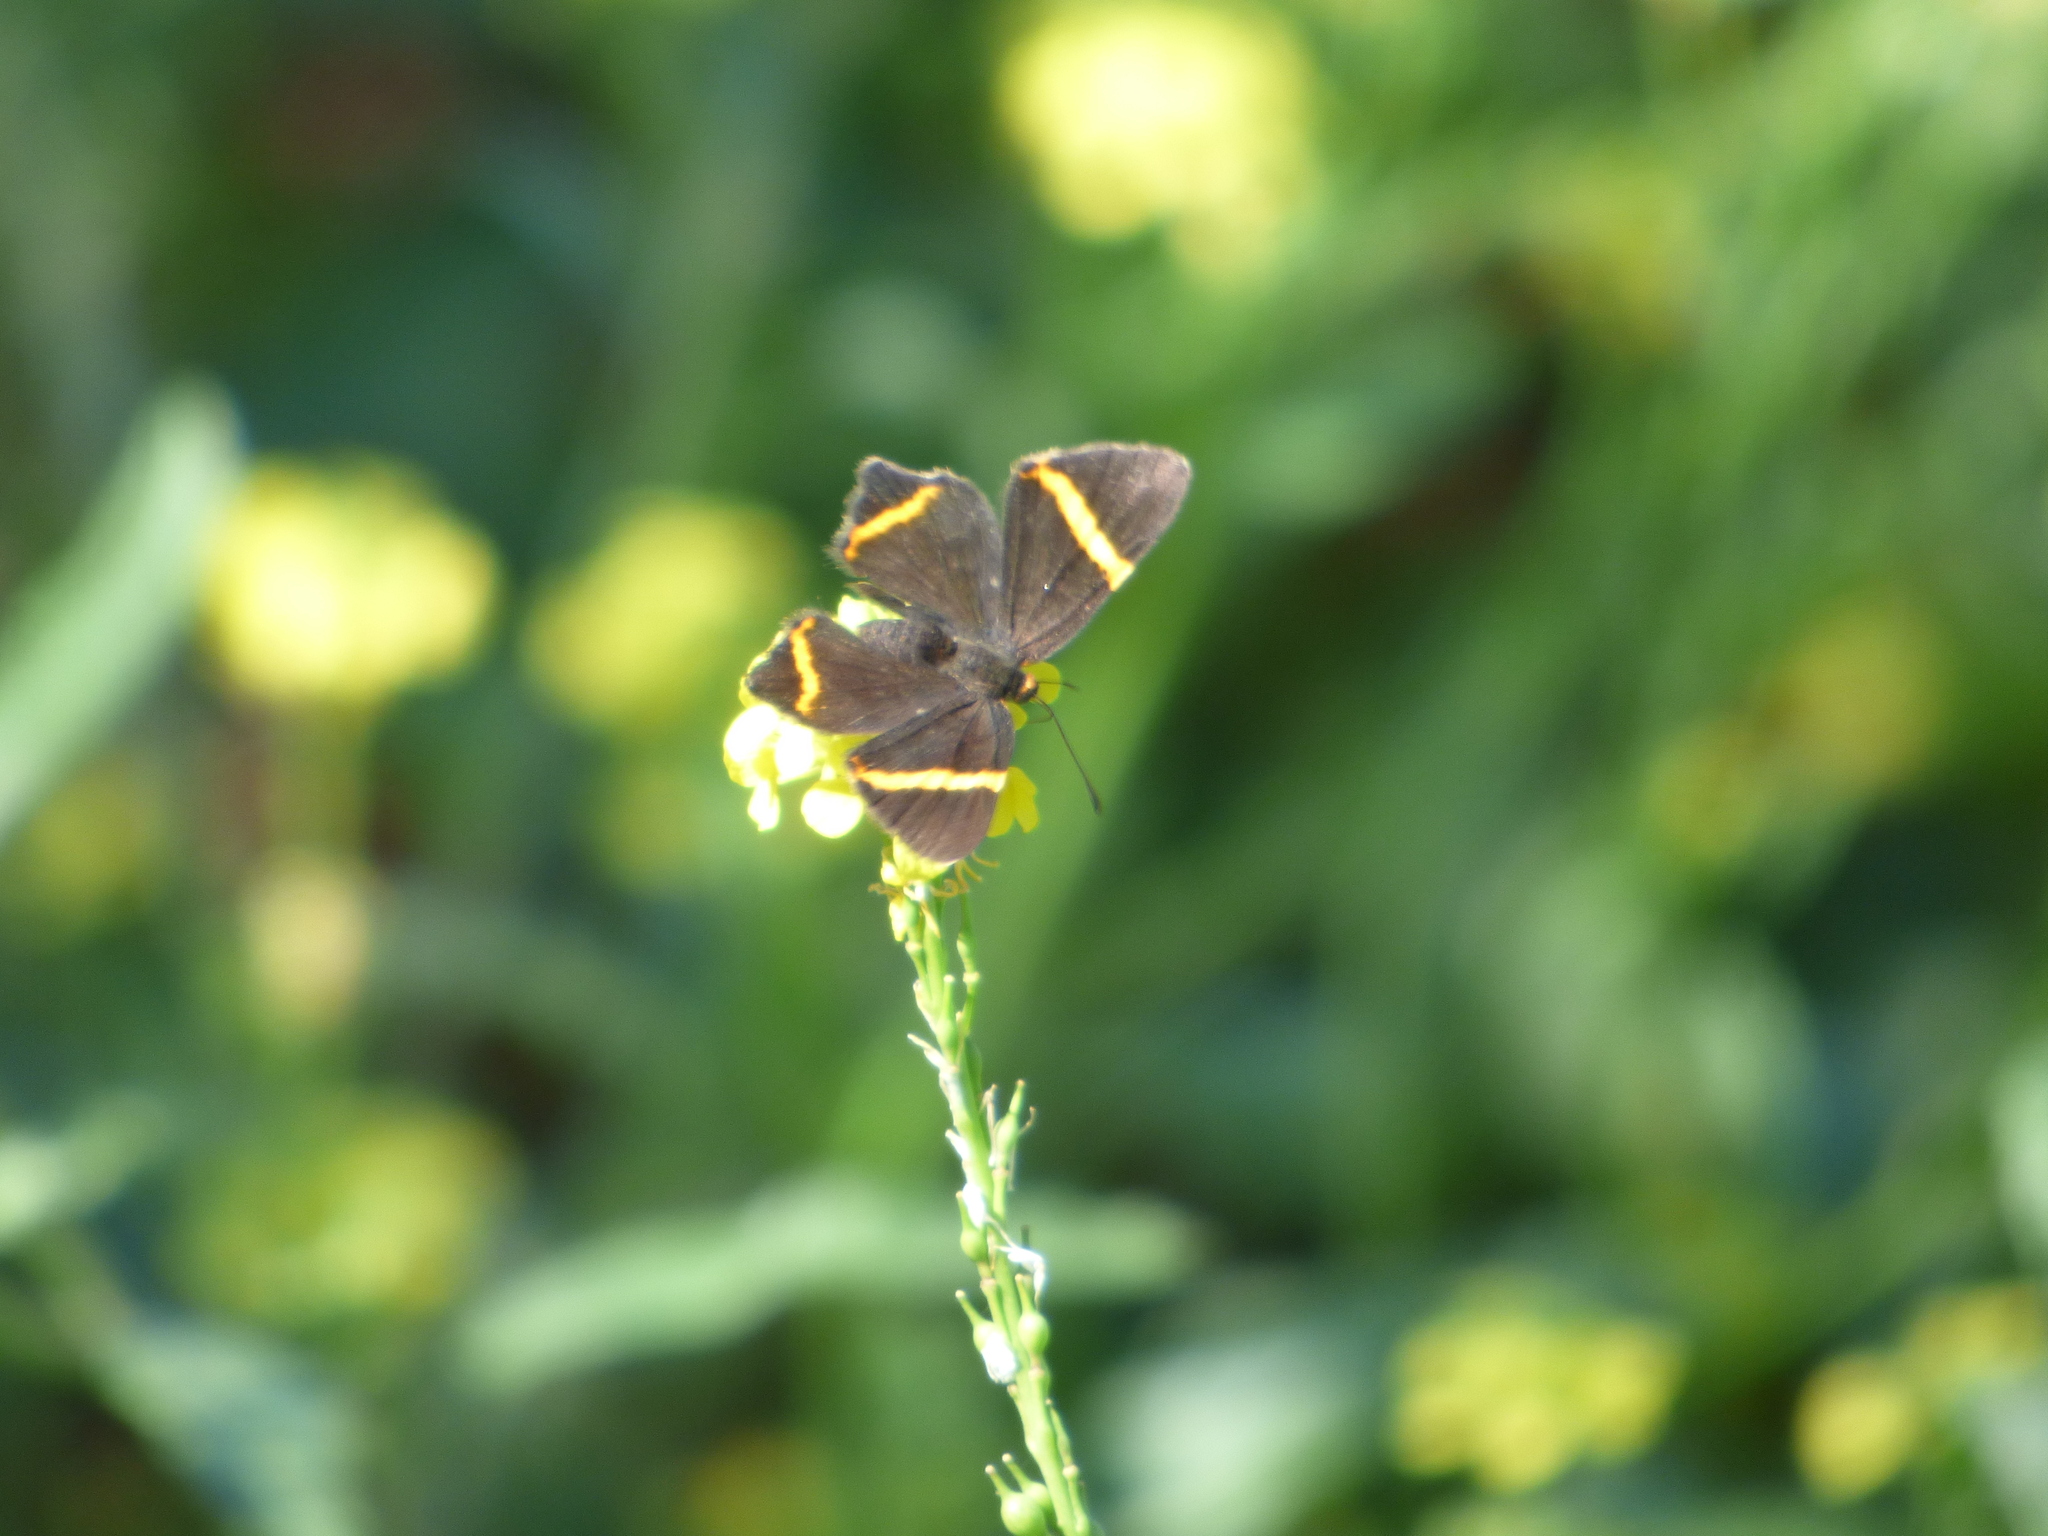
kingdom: Animalia
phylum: Arthropoda
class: Insecta
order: Lepidoptera
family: Riodinidae
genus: Riodina
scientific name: Riodina lysippoides
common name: Little dancer metalmark
